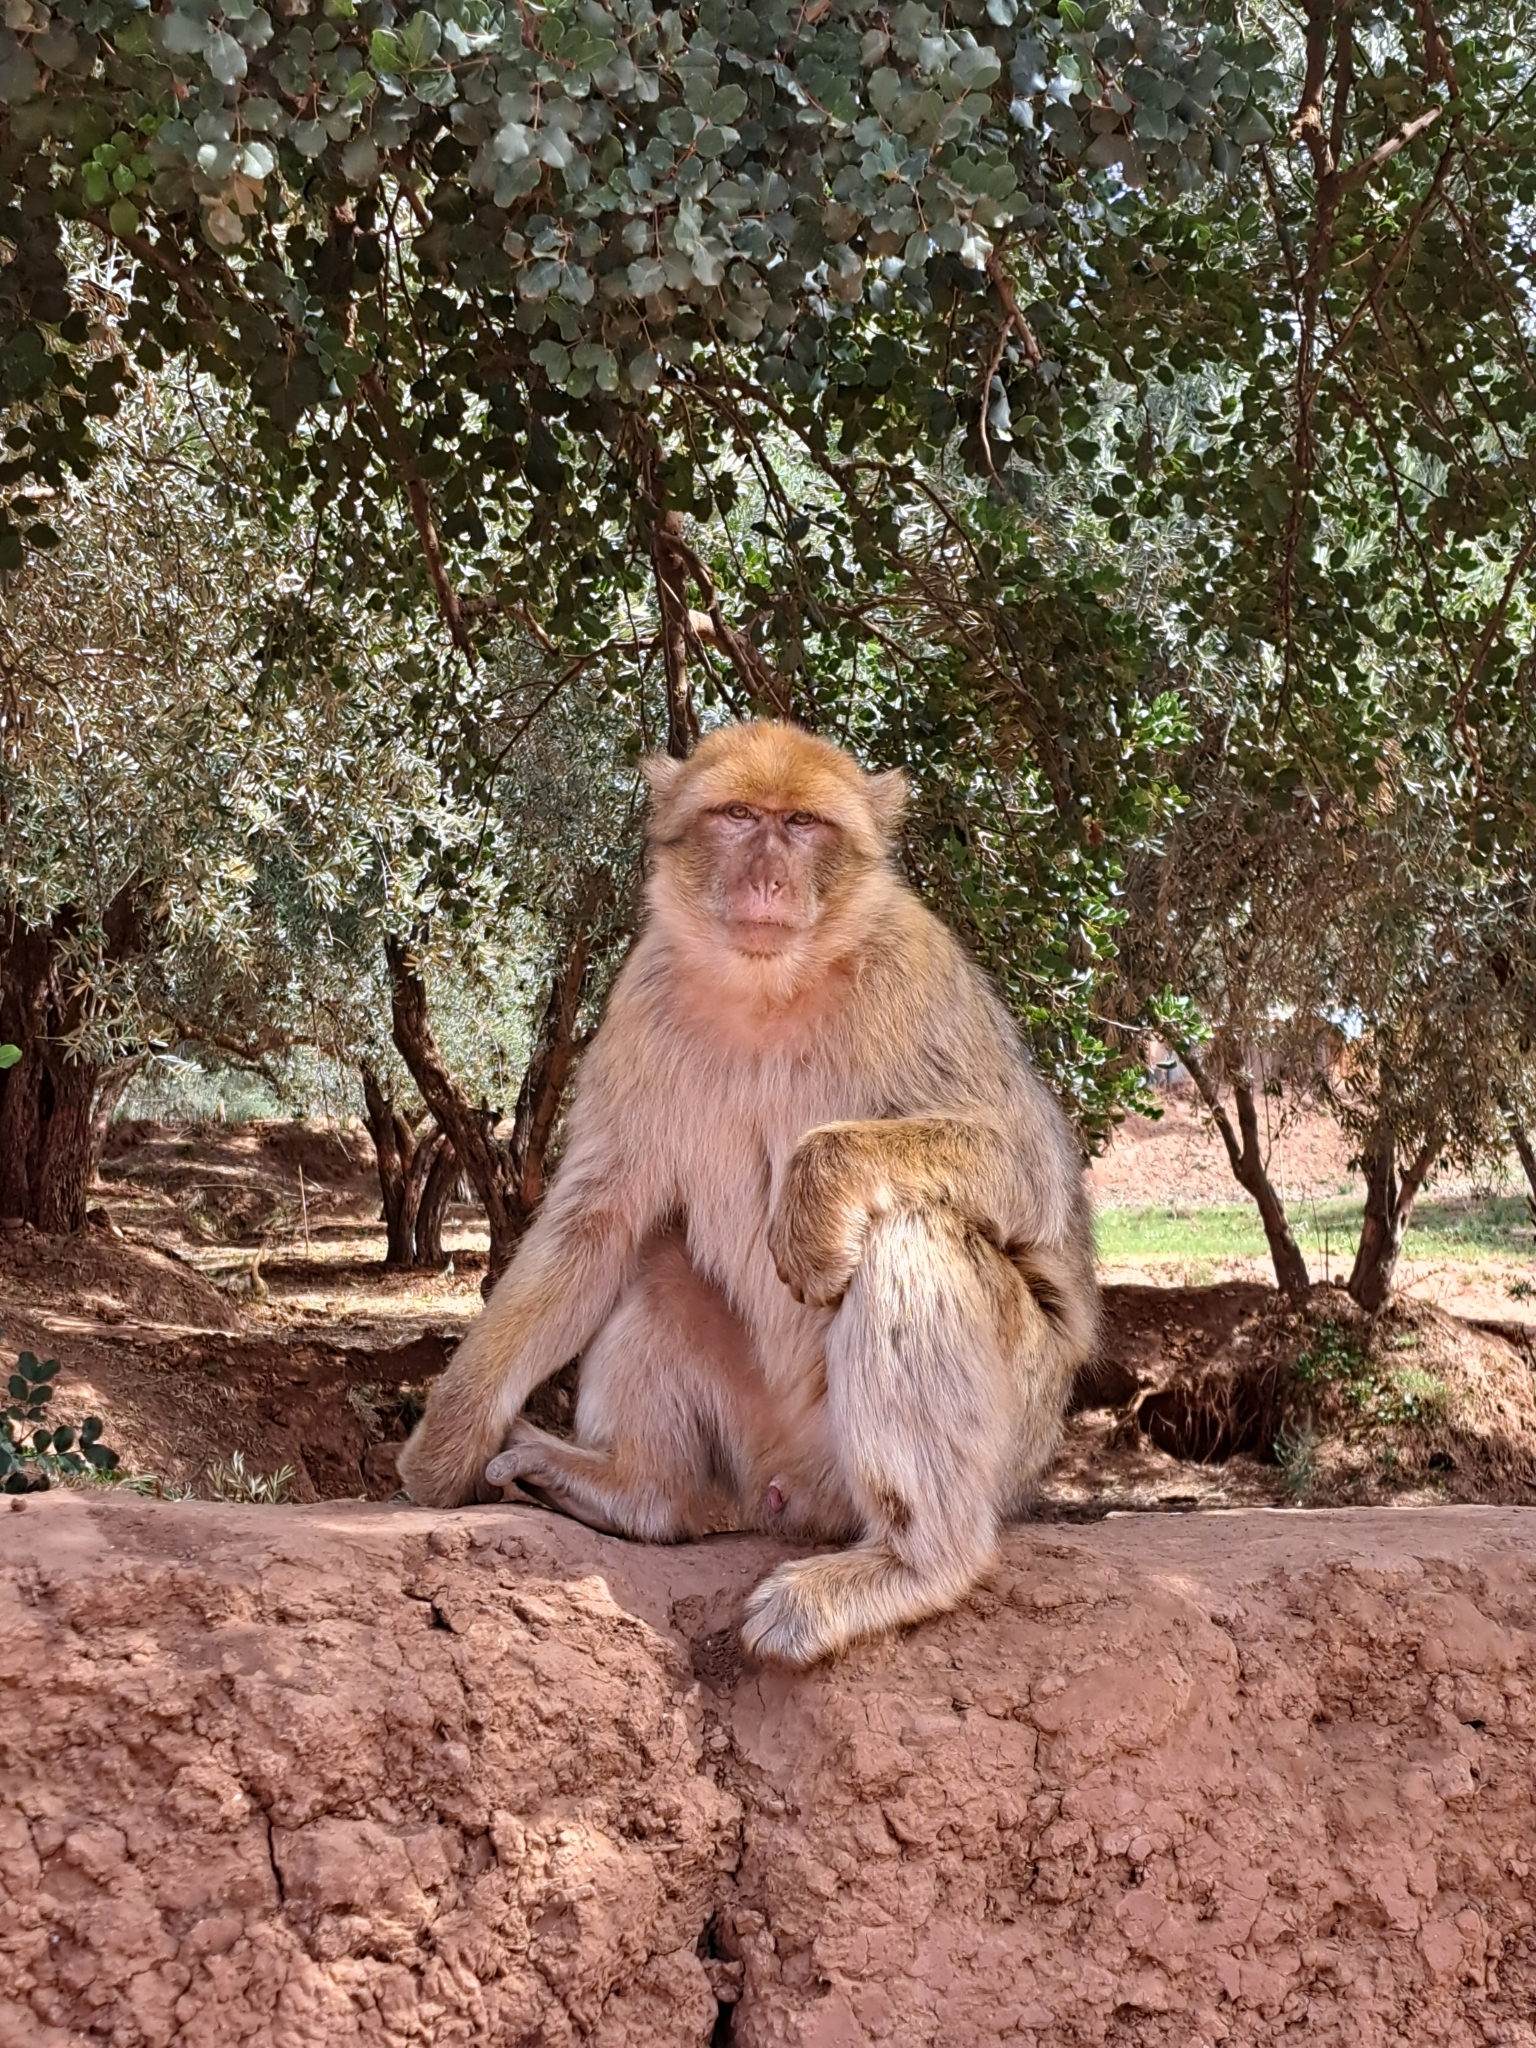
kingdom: Animalia
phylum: Chordata
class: Mammalia
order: Primates
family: Cercopithecidae
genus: Macaca
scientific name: Macaca sylvanus
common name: Barbary macaque
